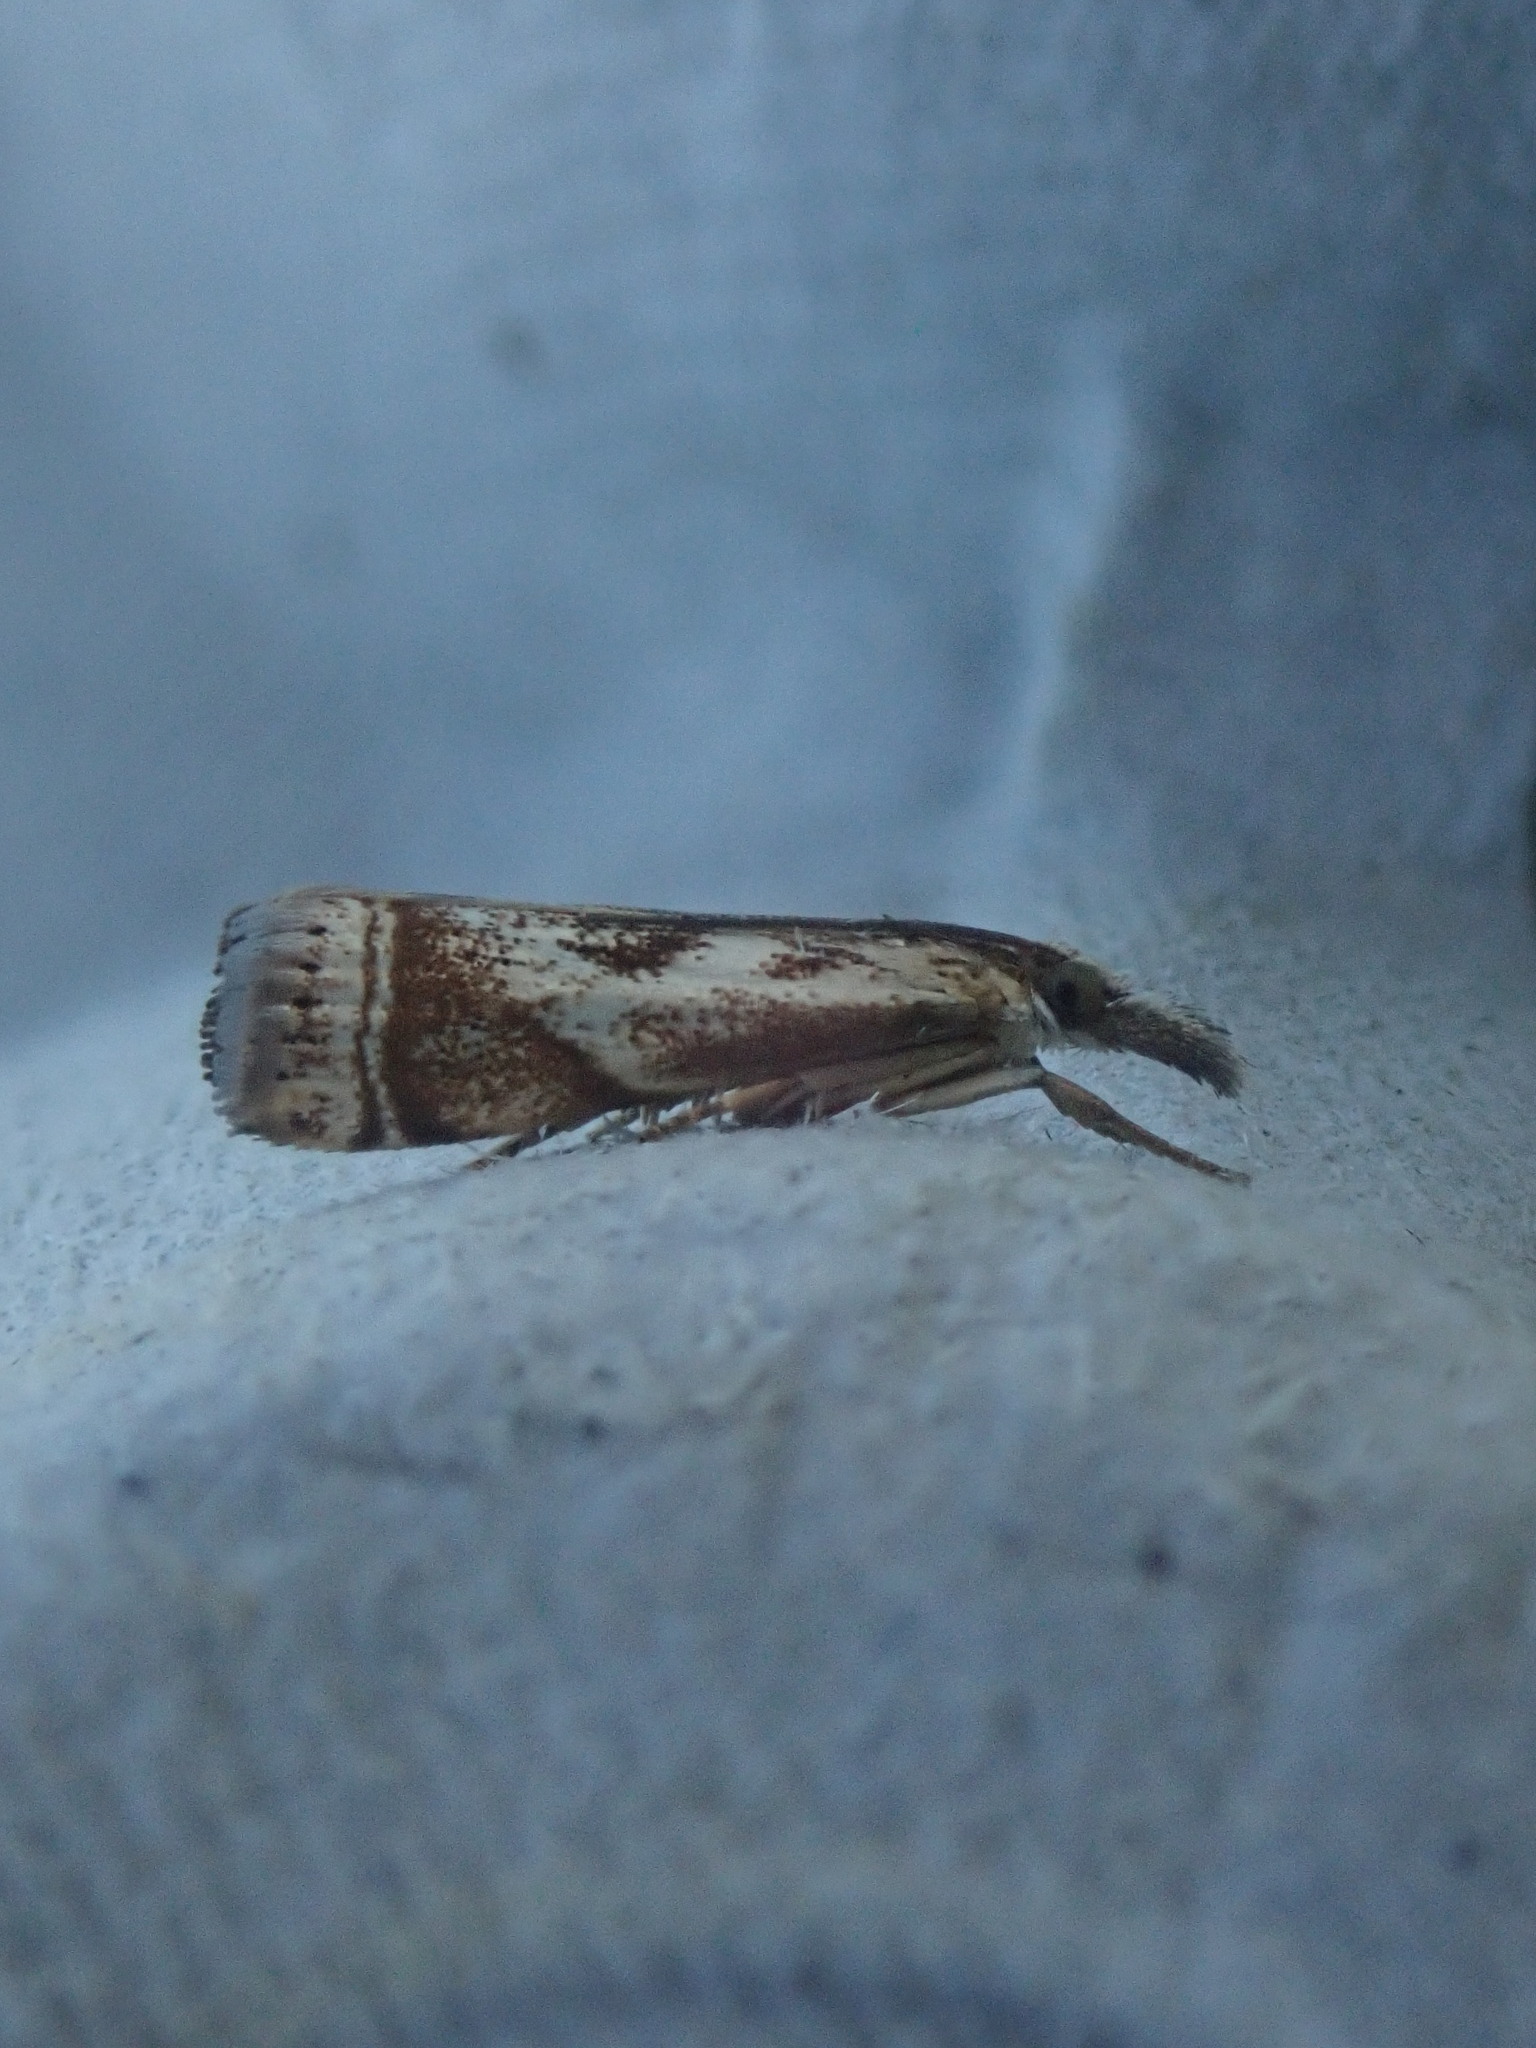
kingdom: Animalia
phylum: Arthropoda
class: Insecta
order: Lepidoptera
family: Crambidae
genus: Microcrambus
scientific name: Microcrambus elegans
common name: Elegant grass-veneer
